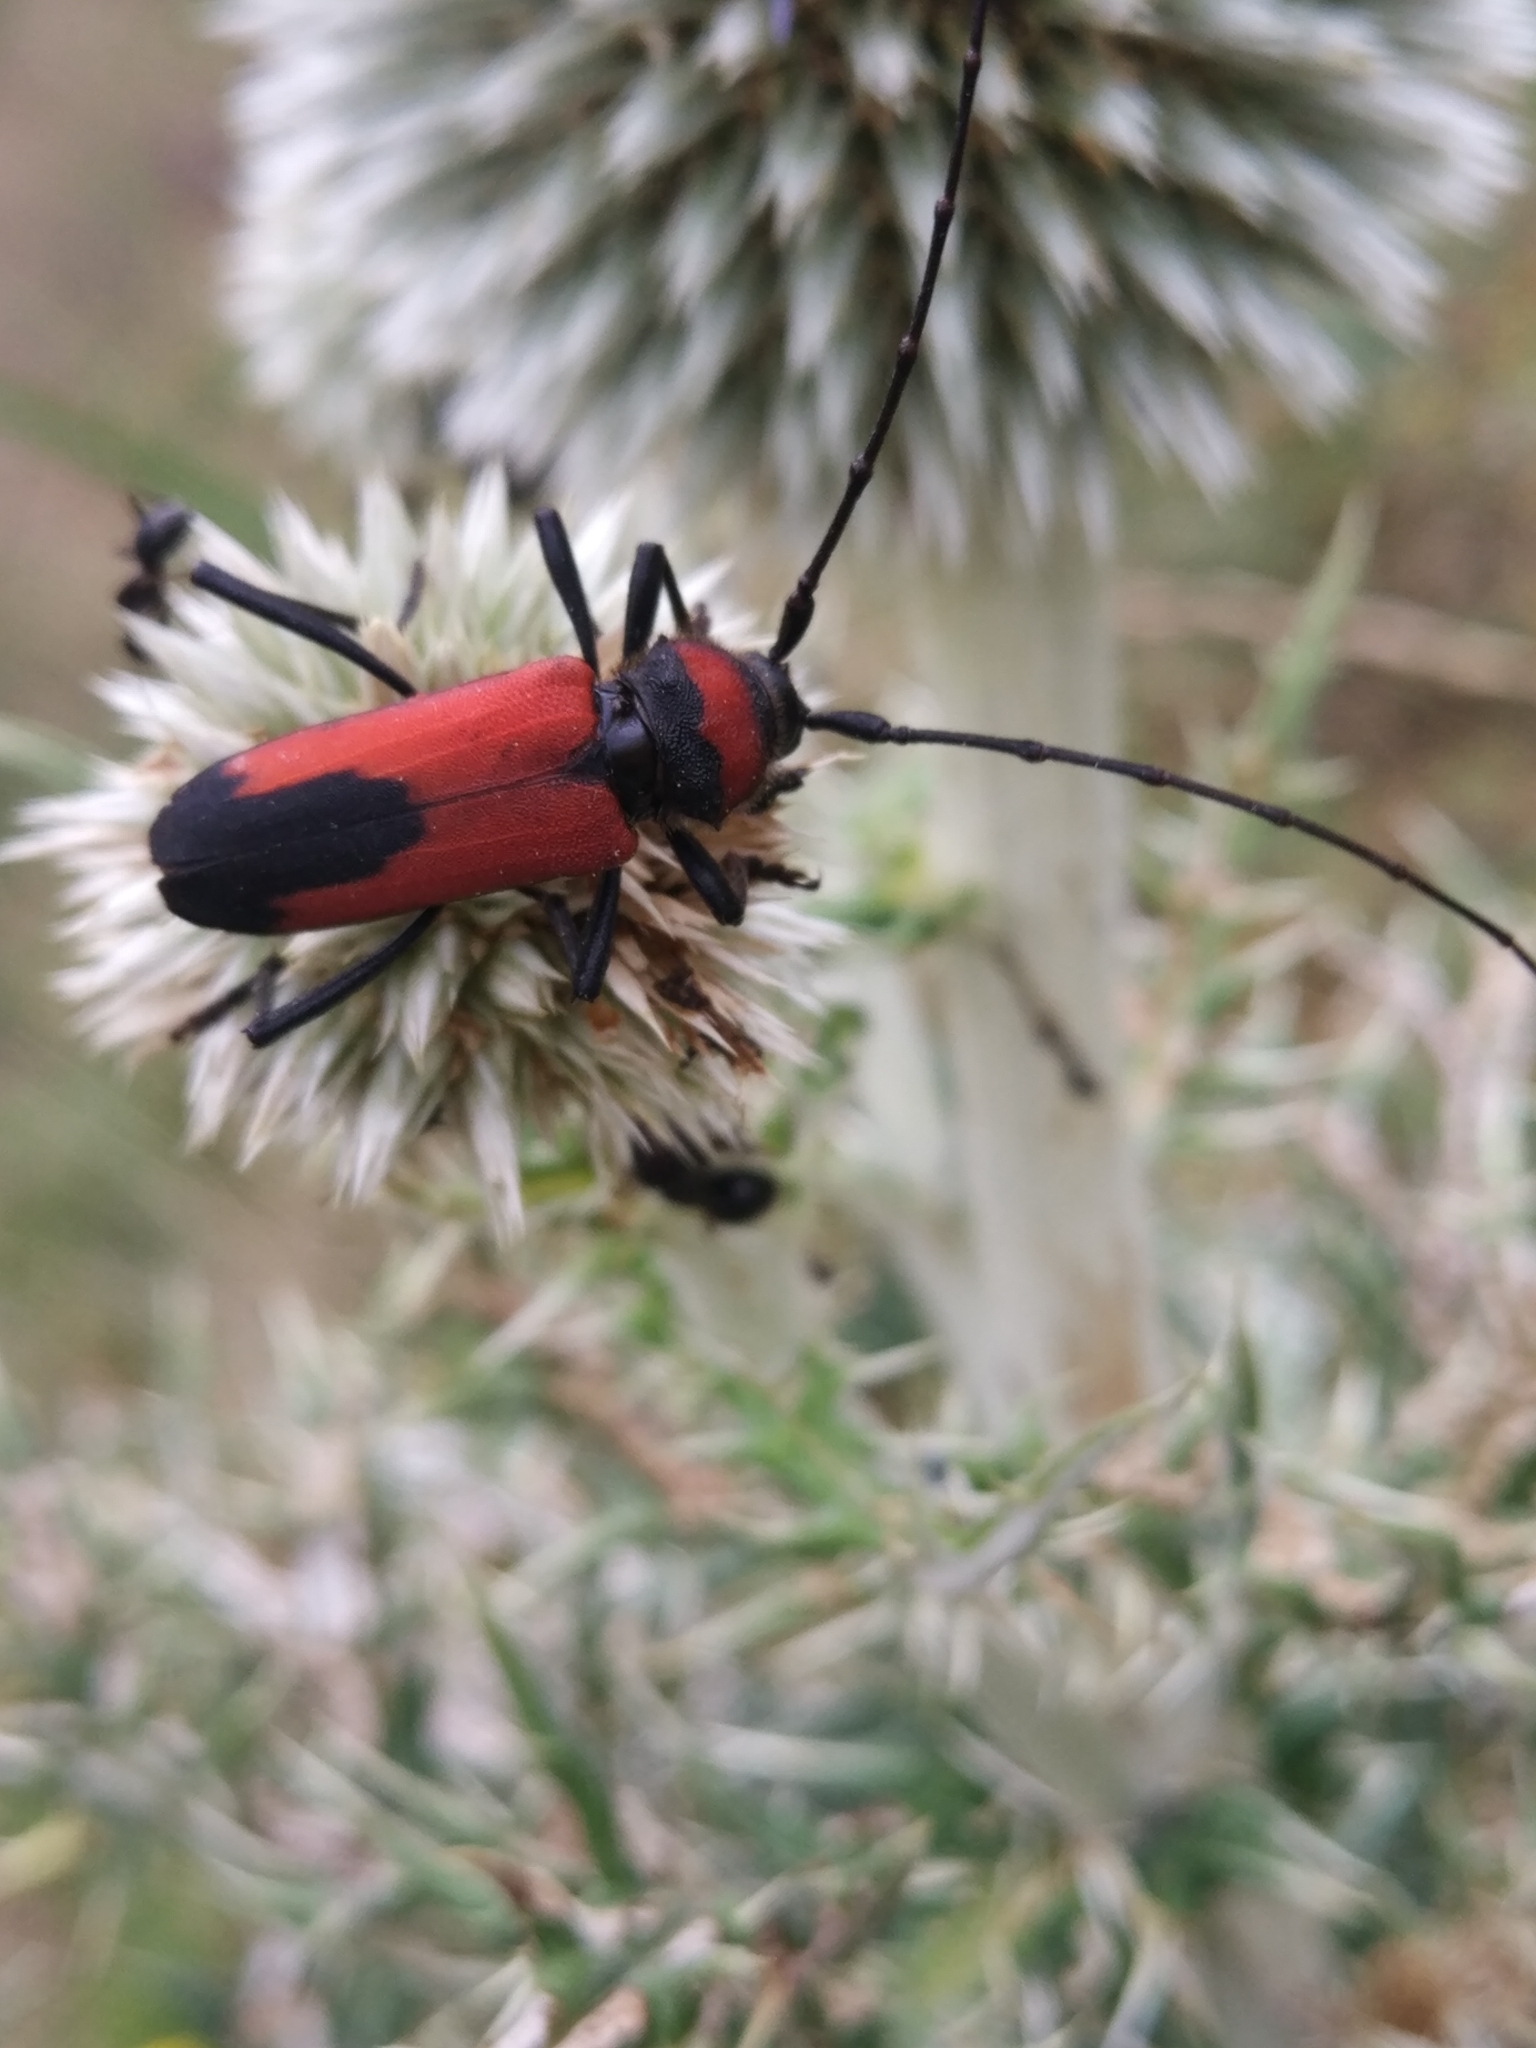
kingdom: Animalia
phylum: Arthropoda
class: Insecta
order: Coleoptera
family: Cerambycidae
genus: Purpuricenus
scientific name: Purpuricenus budensis
